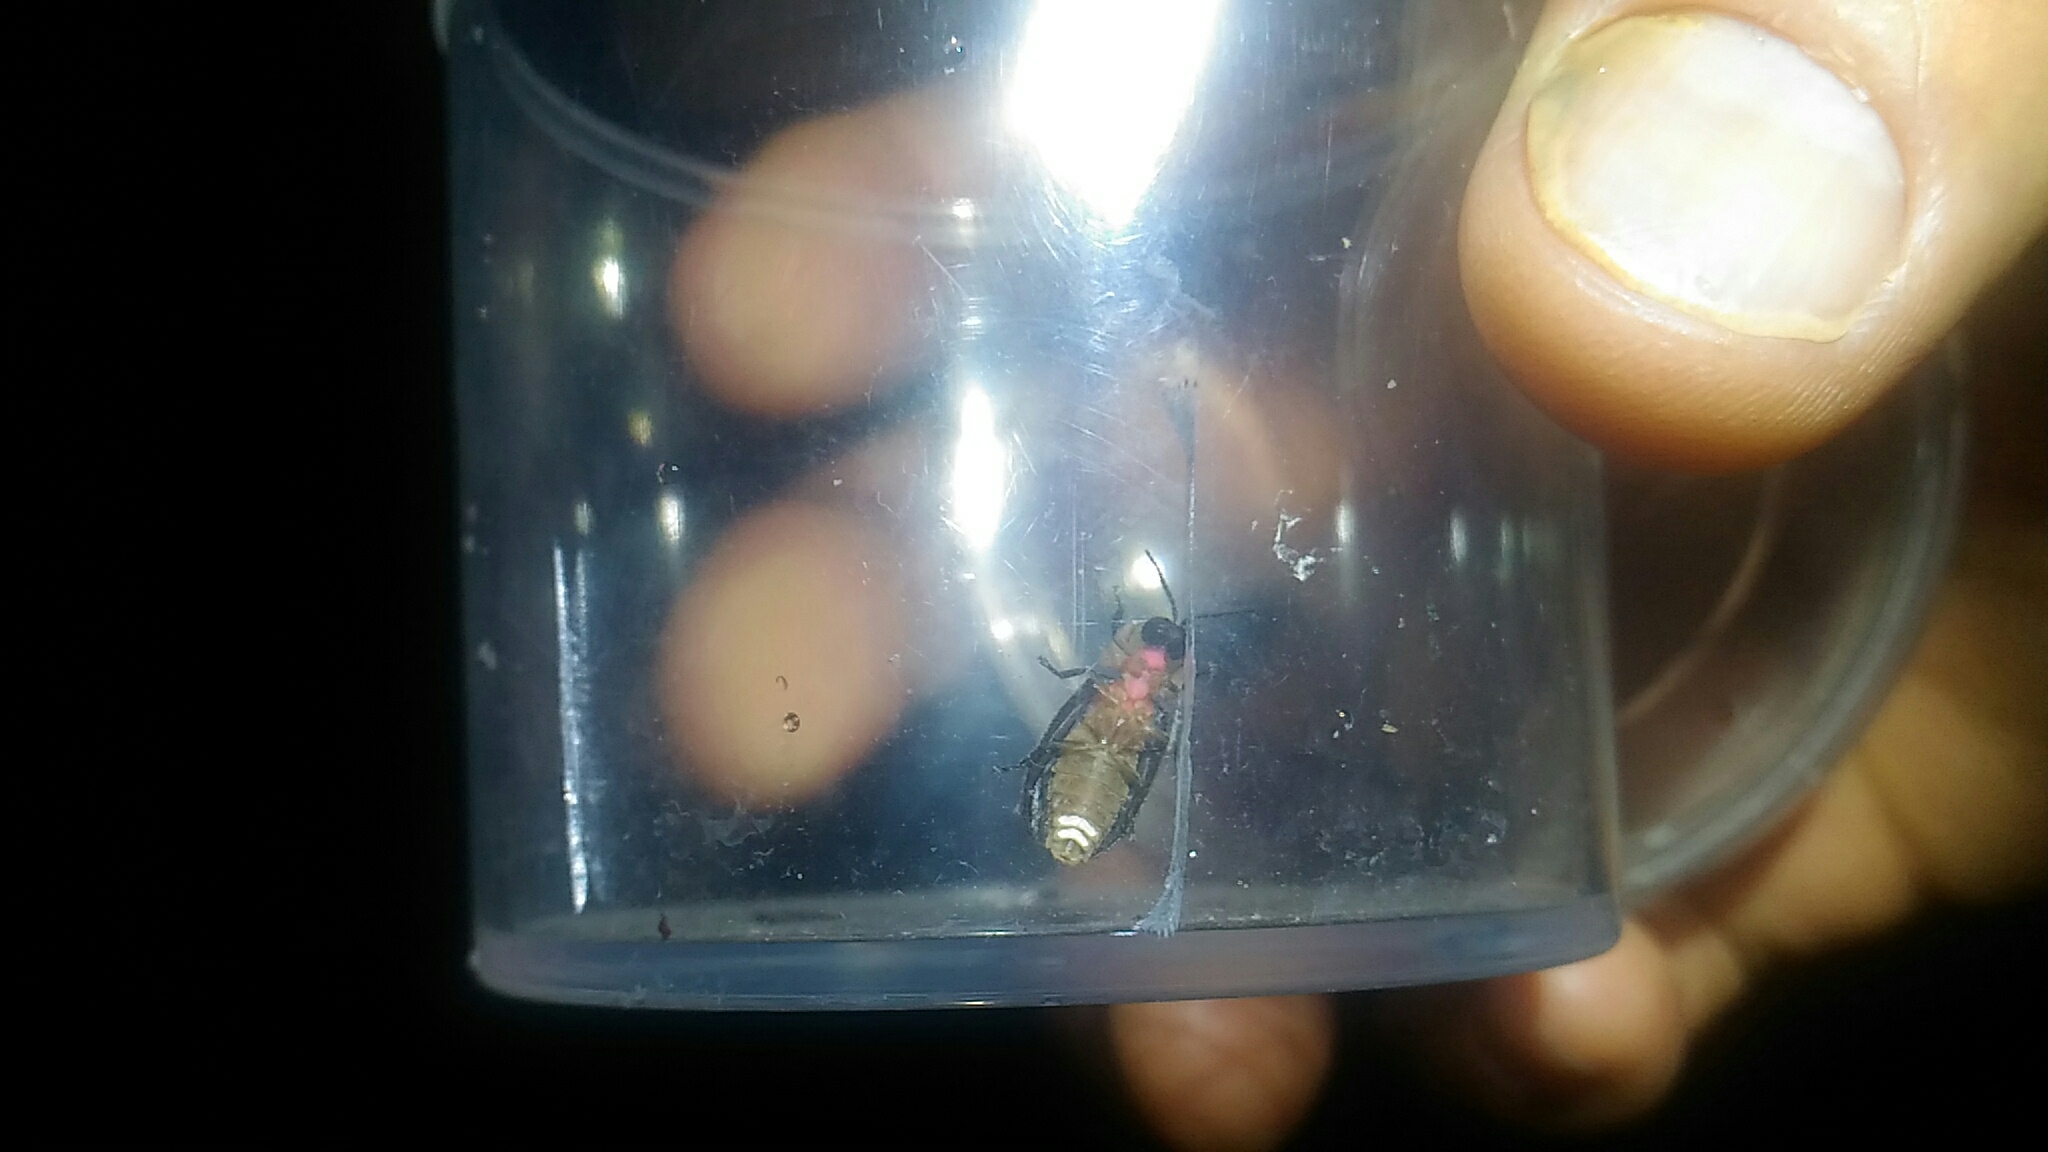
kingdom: Animalia
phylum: Arthropoda
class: Insecta
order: Coleoptera
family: Lampyridae
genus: Diaphanes
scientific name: Diaphanes formosus
